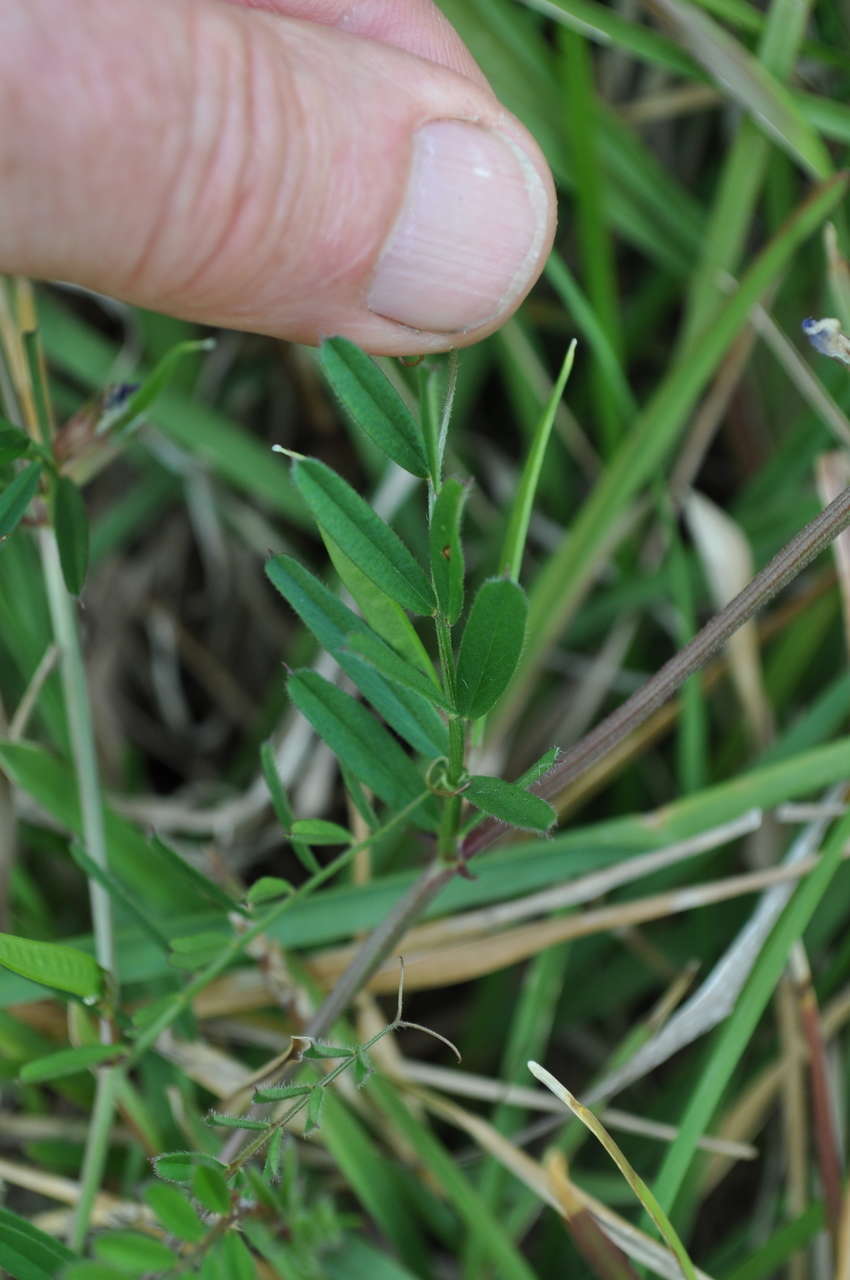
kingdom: Plantae
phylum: Tracheophyta
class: Magnoliopsida
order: Fabales
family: Fabaceae
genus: Vicia
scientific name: Vicia sativa
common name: Garden vetch
